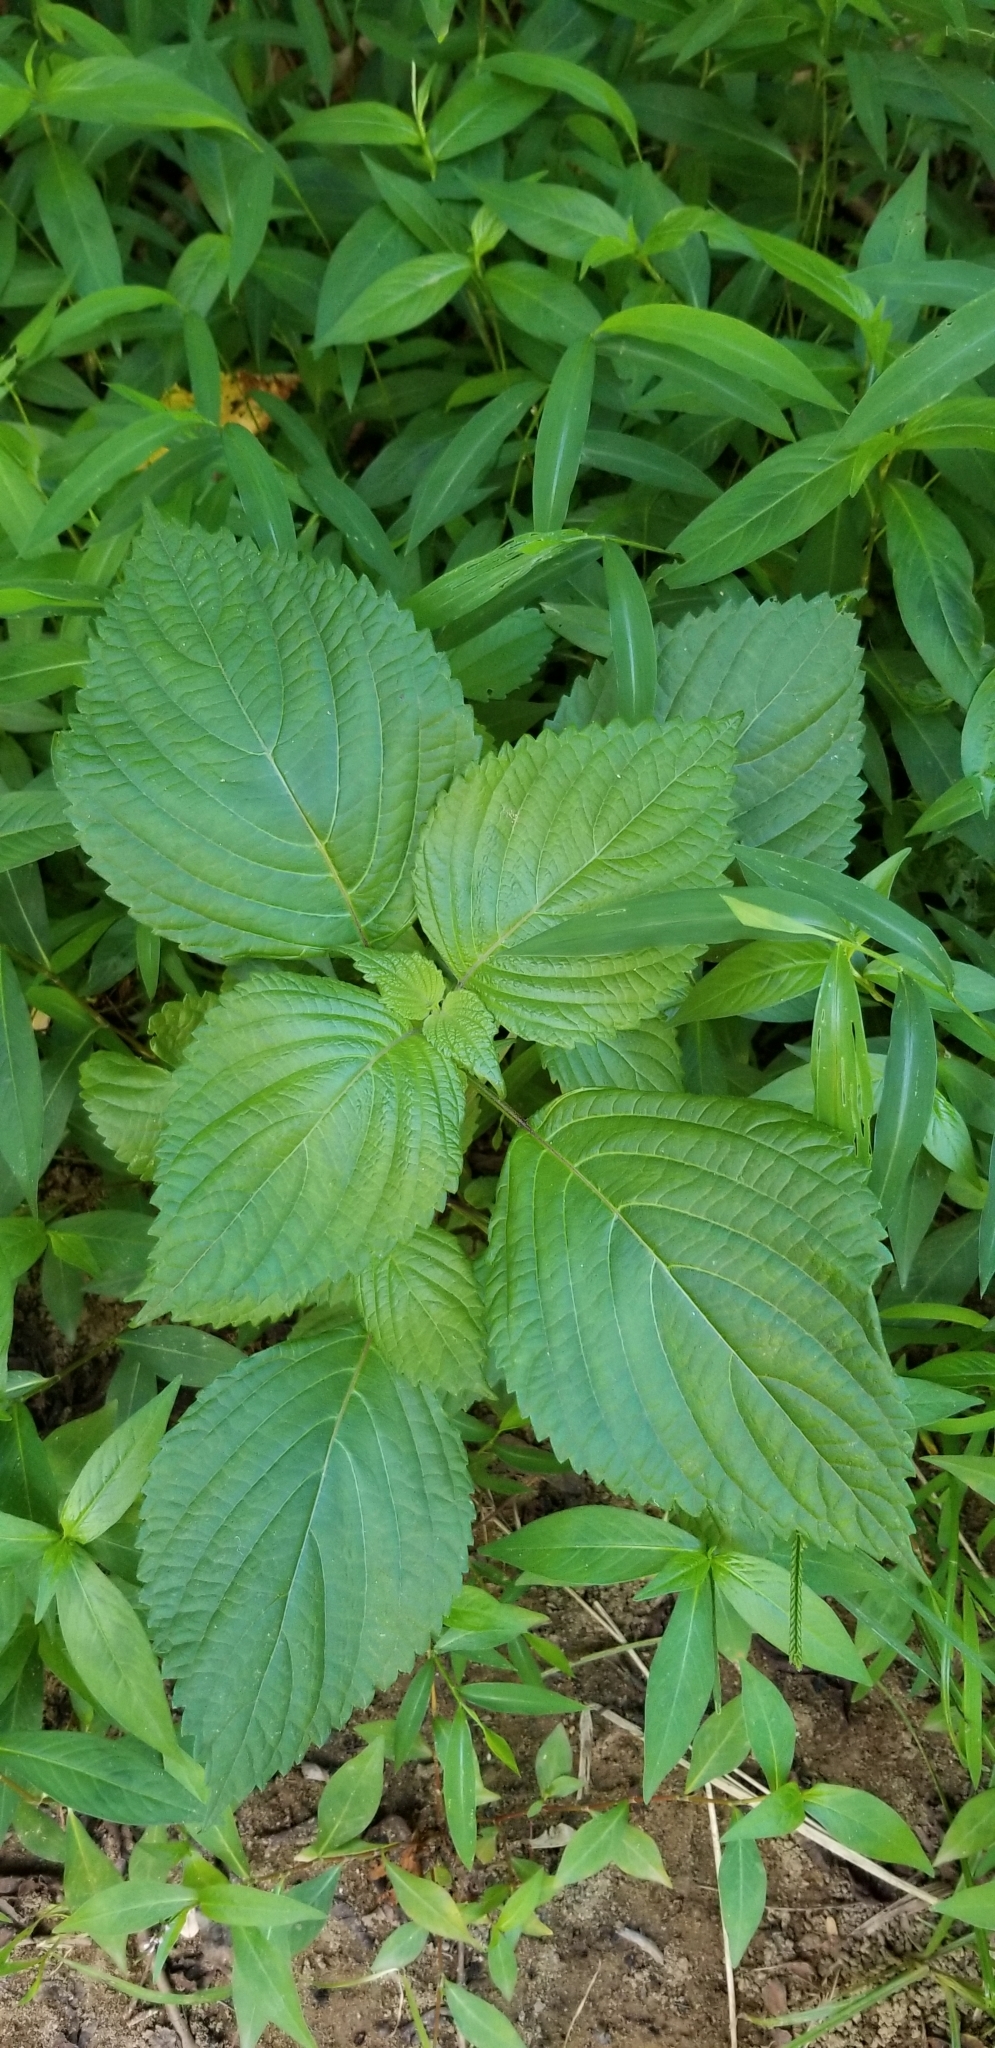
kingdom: Plantae
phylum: Tracheophyta
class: Magnoliopsida
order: Lamiales
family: Lamiaceae
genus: Perilla
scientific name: Perilla frutescens
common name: Perilla
